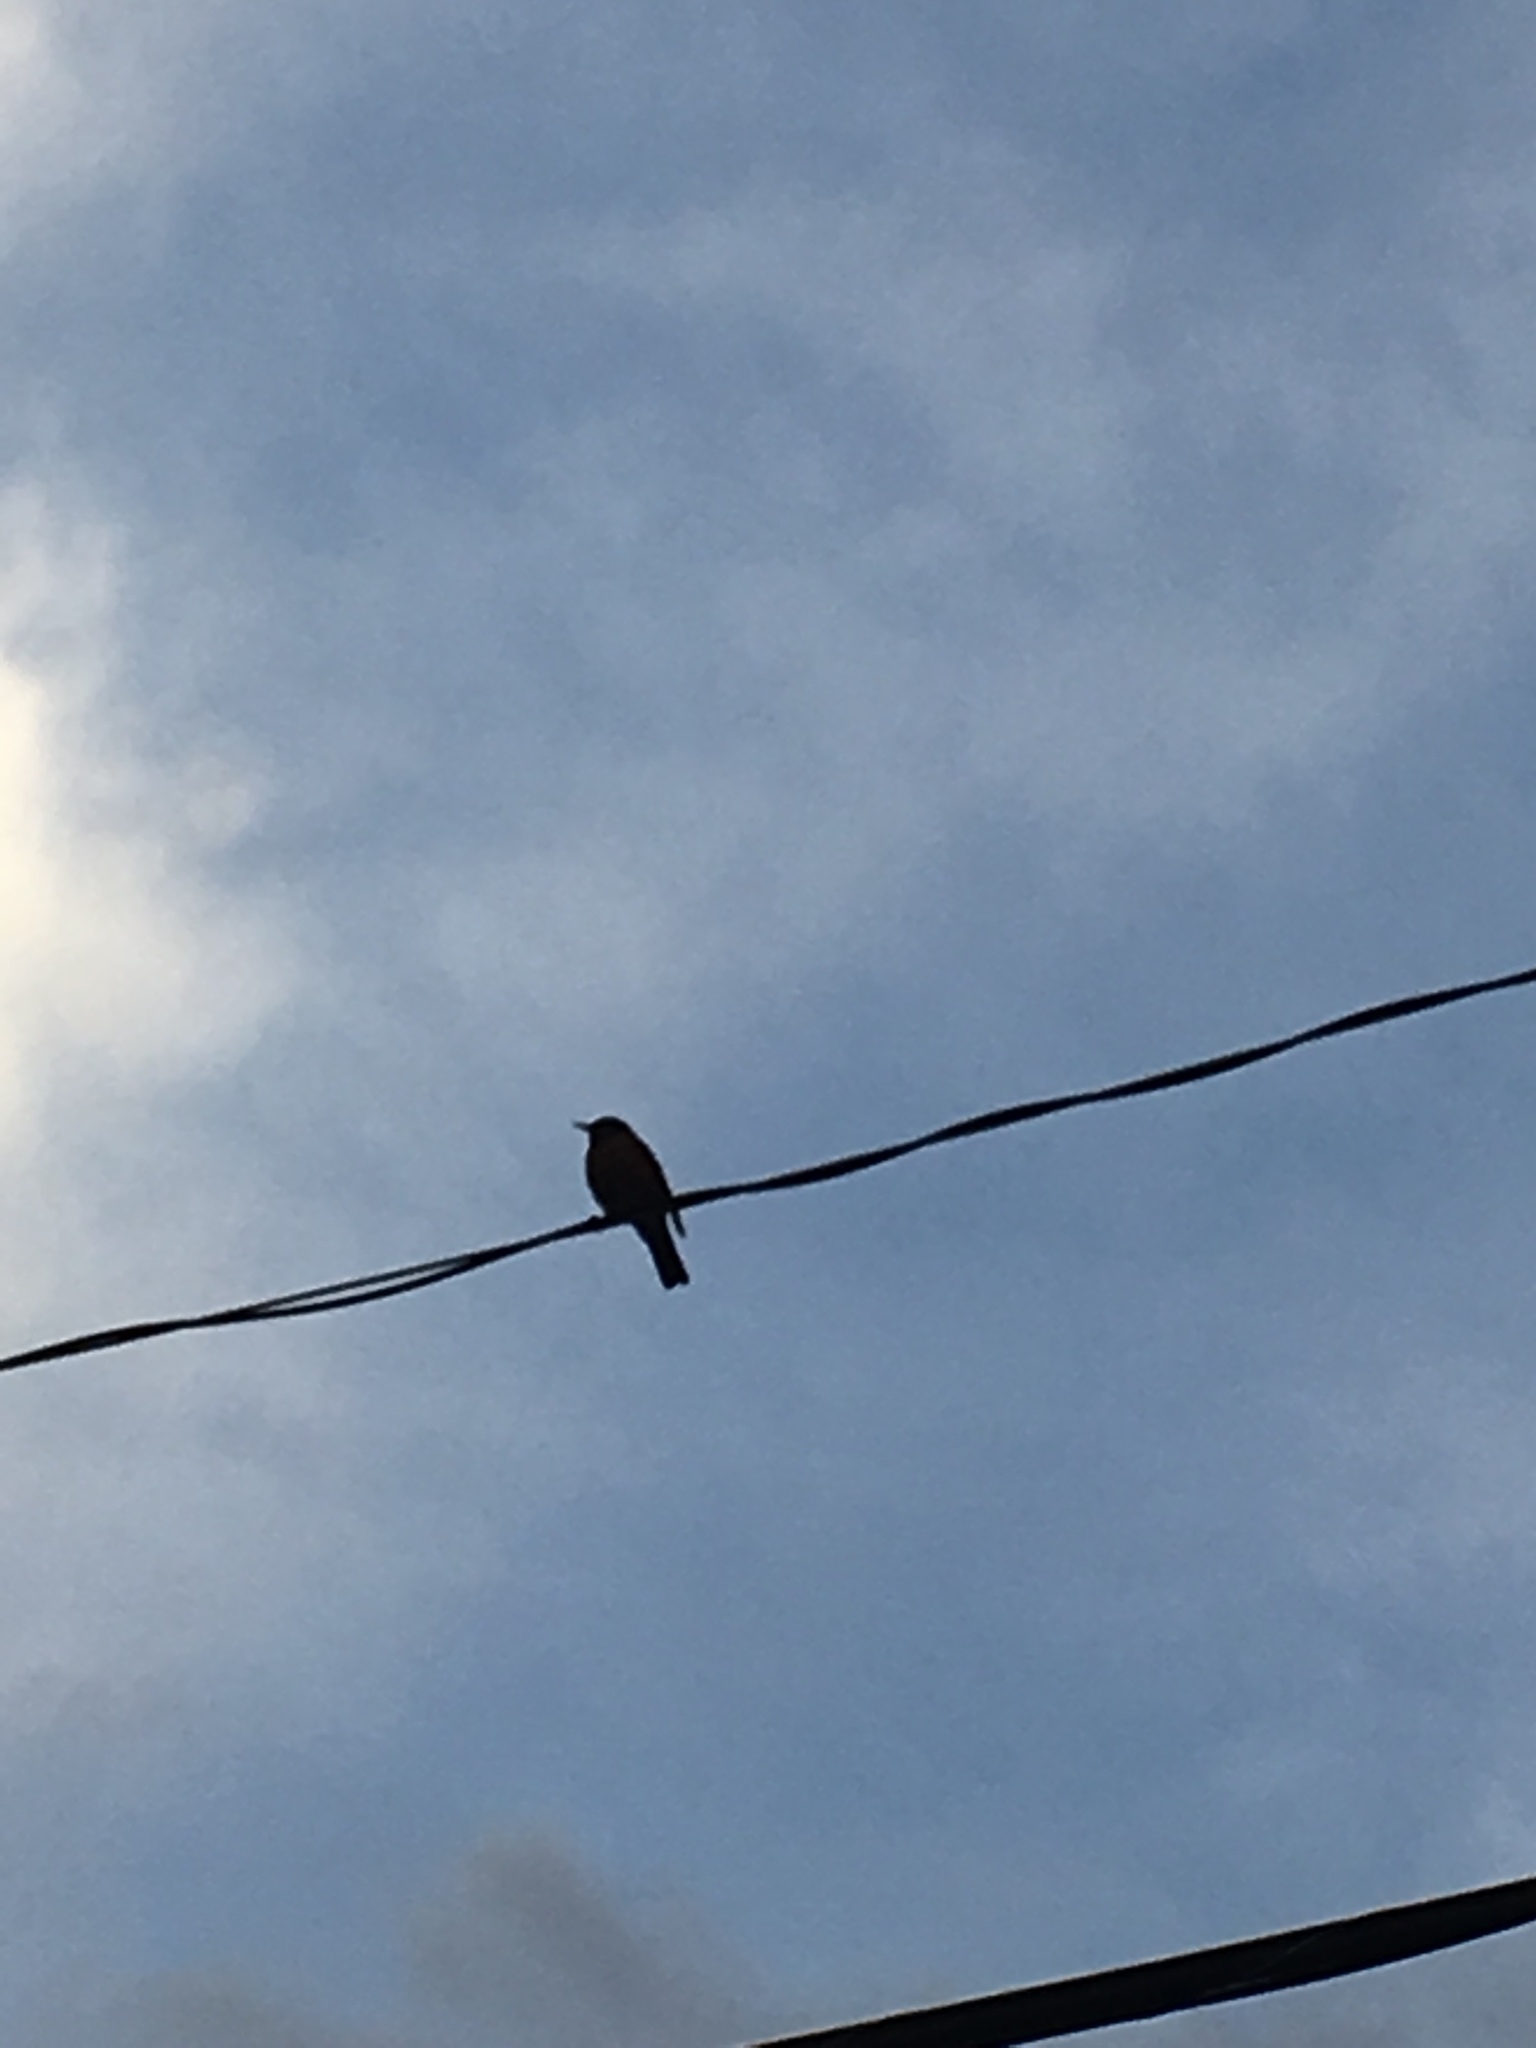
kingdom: Animalia
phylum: Chordata
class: Aves
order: Passeriformes
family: Turdidae
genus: Turdus
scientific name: Turdus migratorius
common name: American robin
